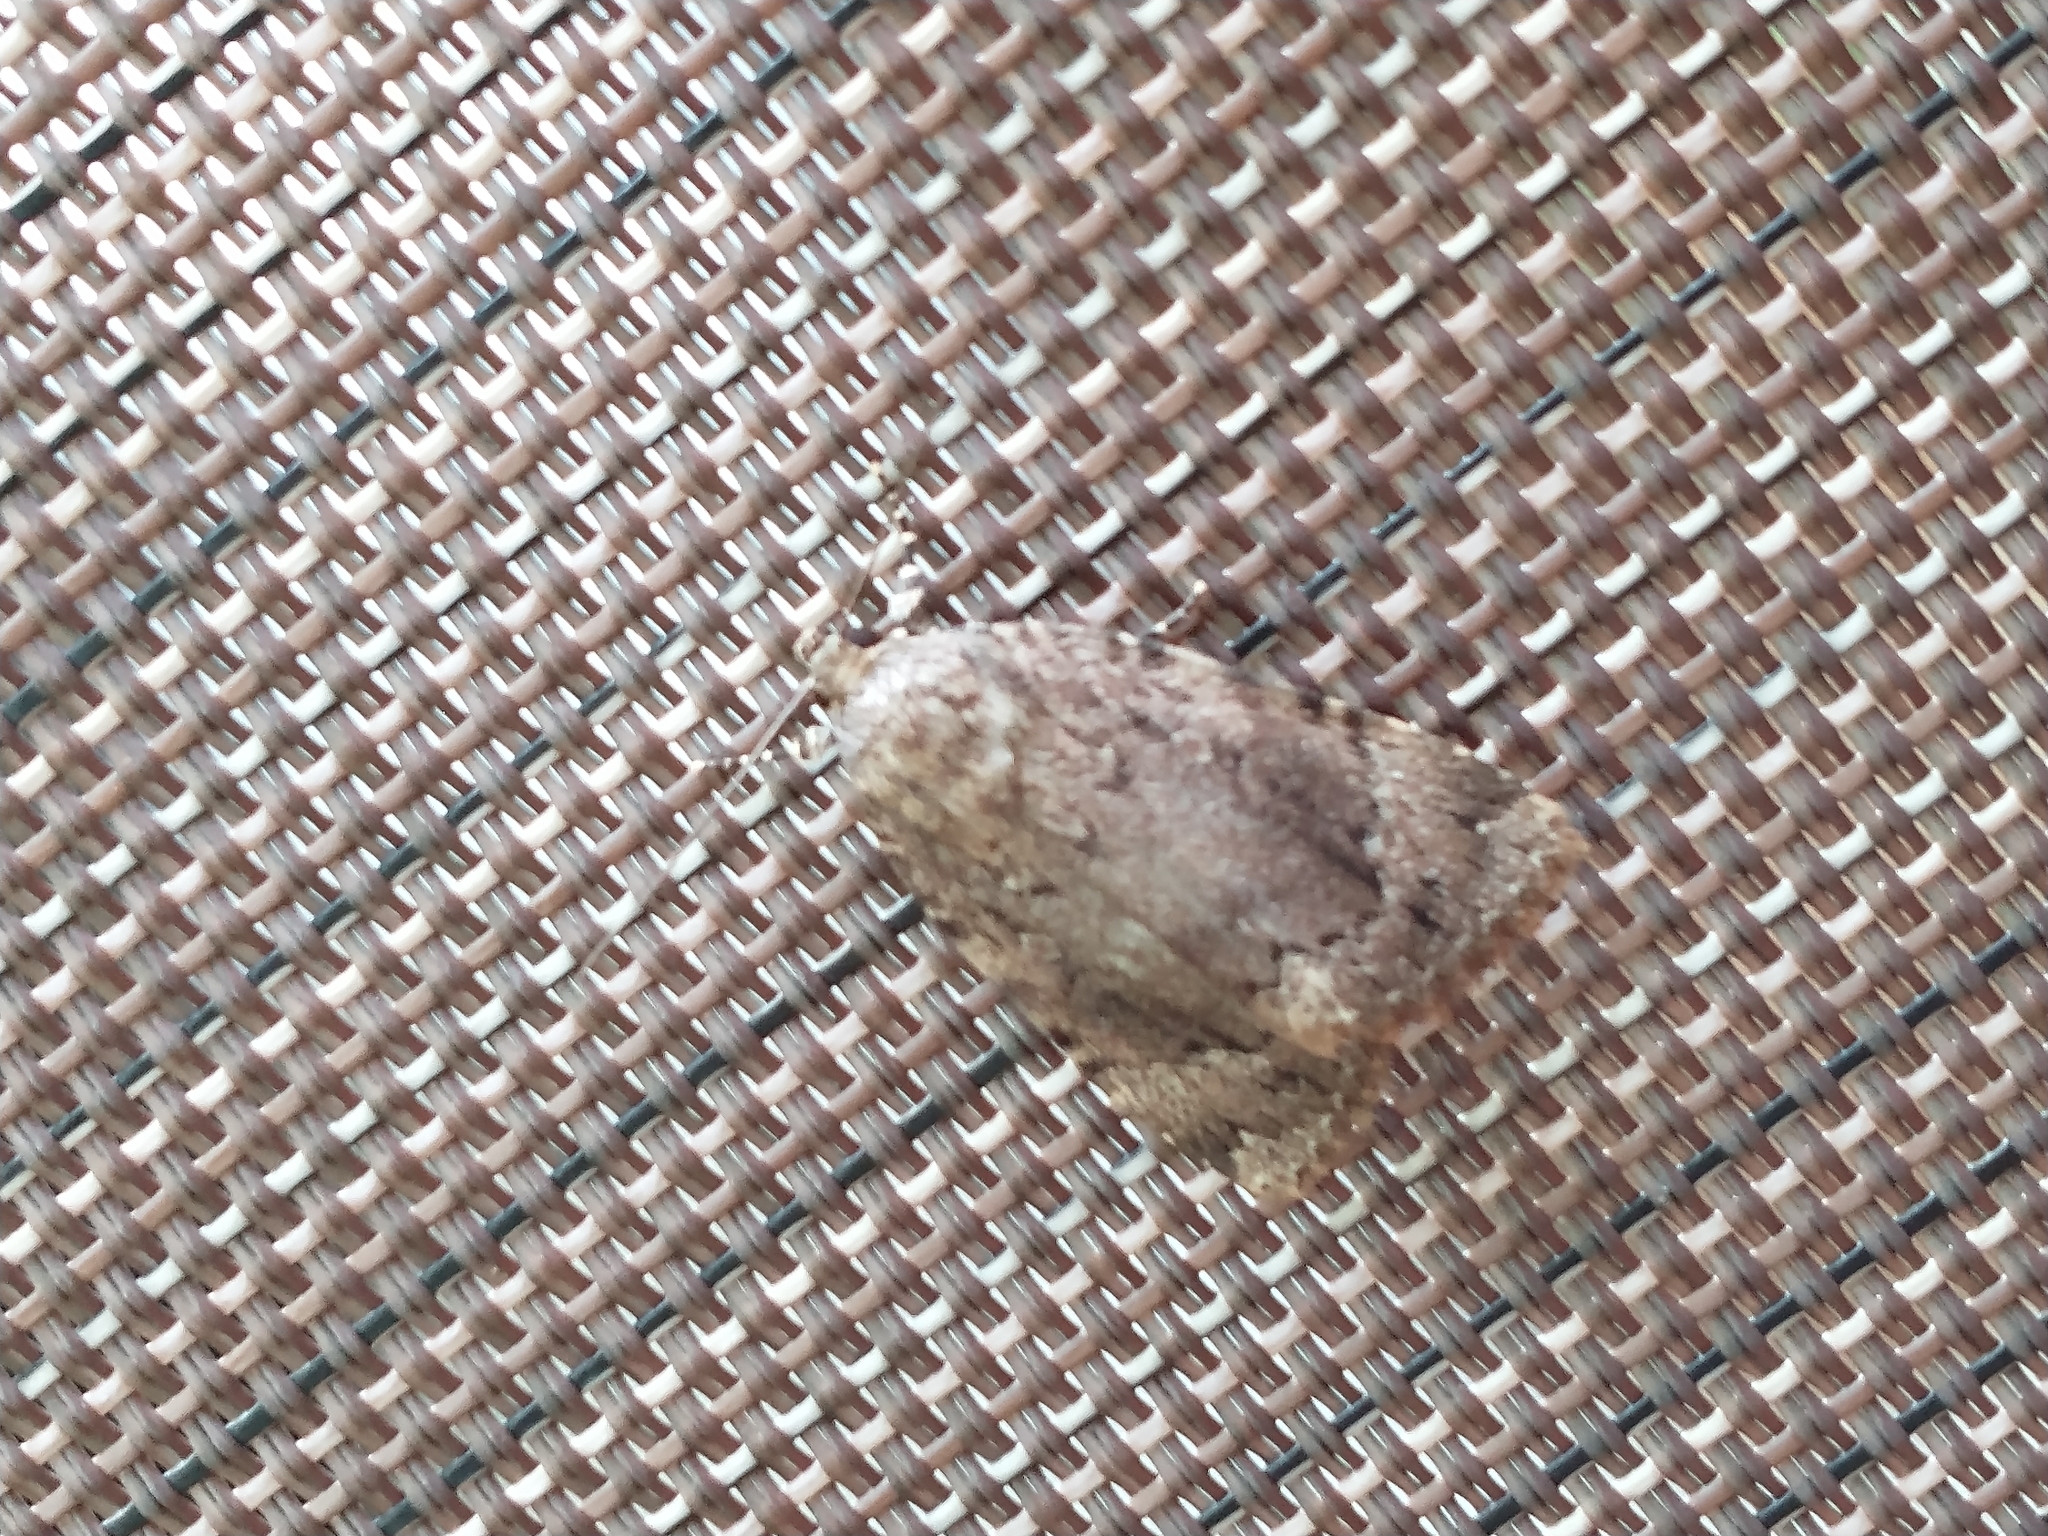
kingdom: Animalia
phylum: Arthropoda
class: Insecta
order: Lepidoptera
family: Noctuidae
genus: Amphipyra
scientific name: Amphipyra pyramidoides
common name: American copper underwing
